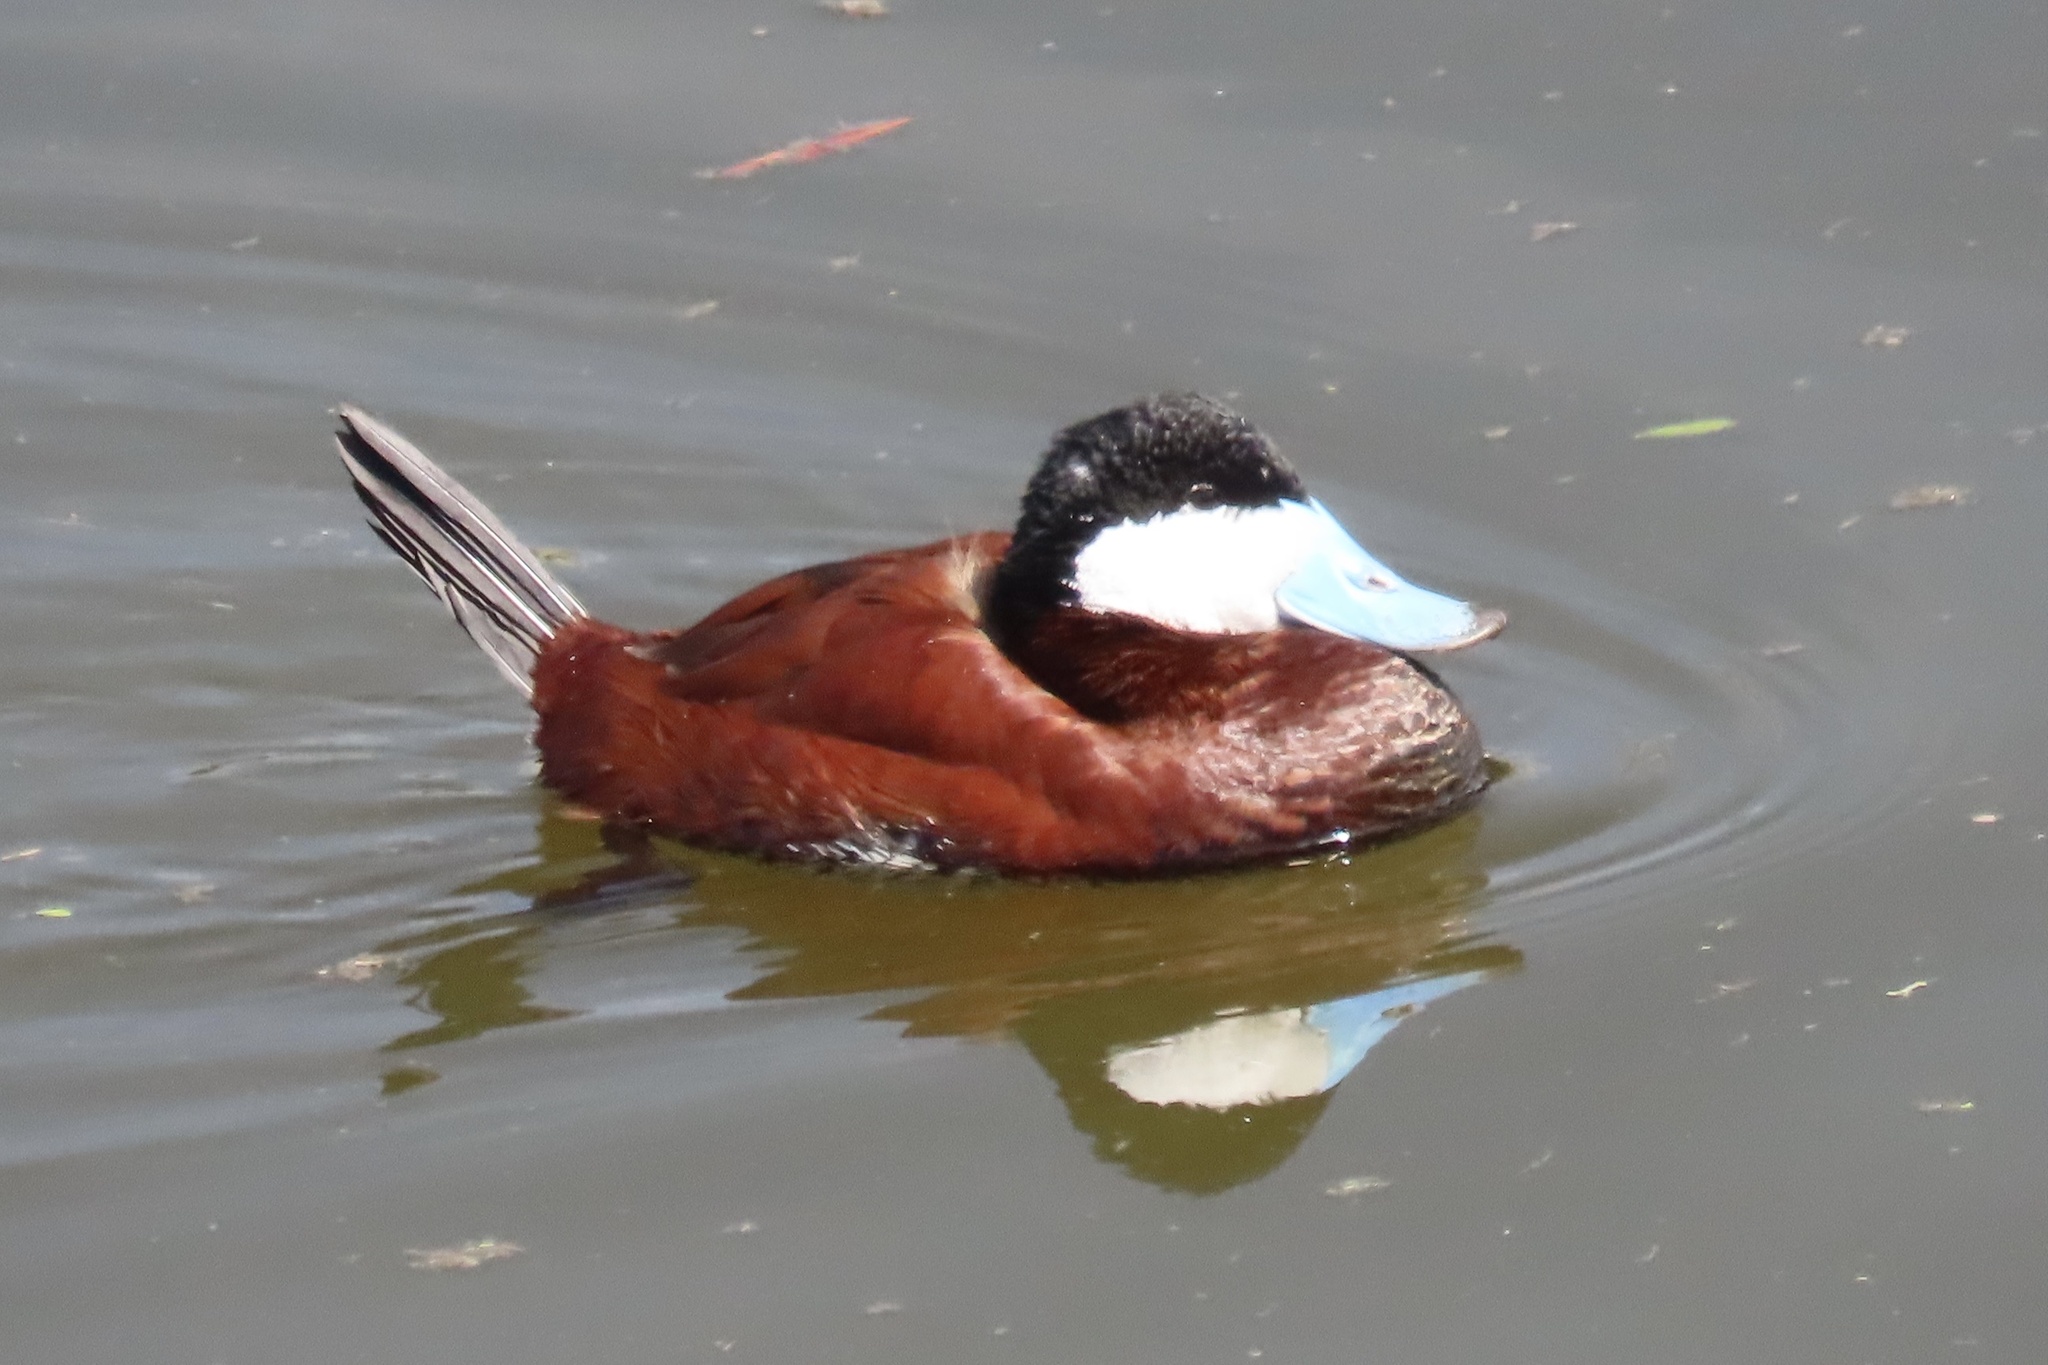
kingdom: Animalia
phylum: Chordata
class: Aves
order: Anseriformes
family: Anatidae
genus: Oxyura
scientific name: Oxyura jamaicensis
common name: Ruddy duck
